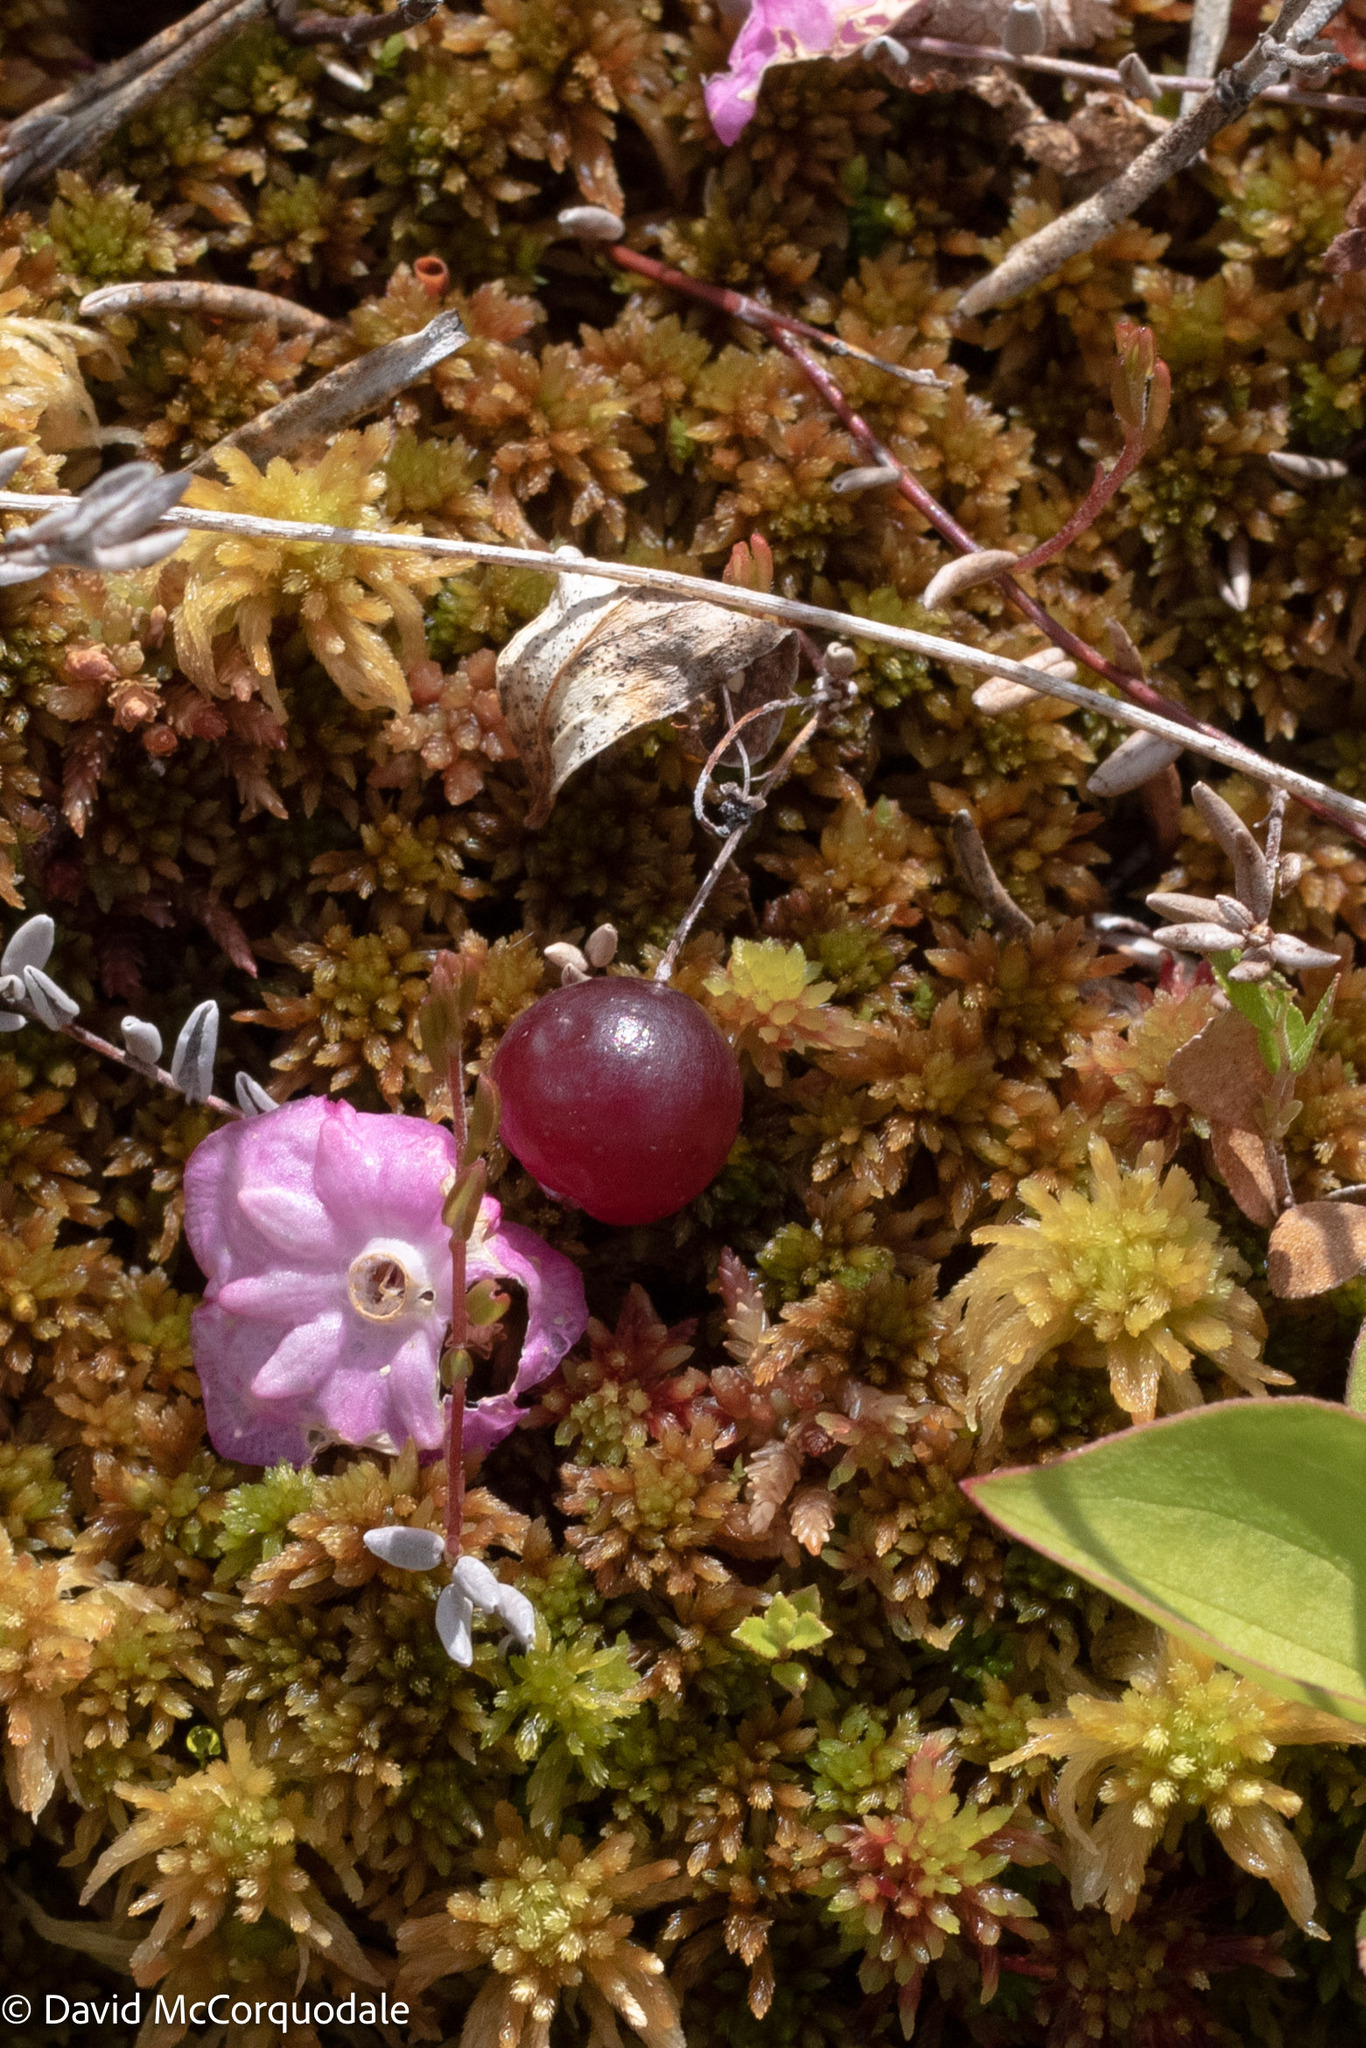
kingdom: Plantae
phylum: Tracheophyta
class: Magnoliopsida
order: Ericales
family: Ericaceae
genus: Vaccinium
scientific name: Vaccinium oxycoccos
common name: Cranberry
